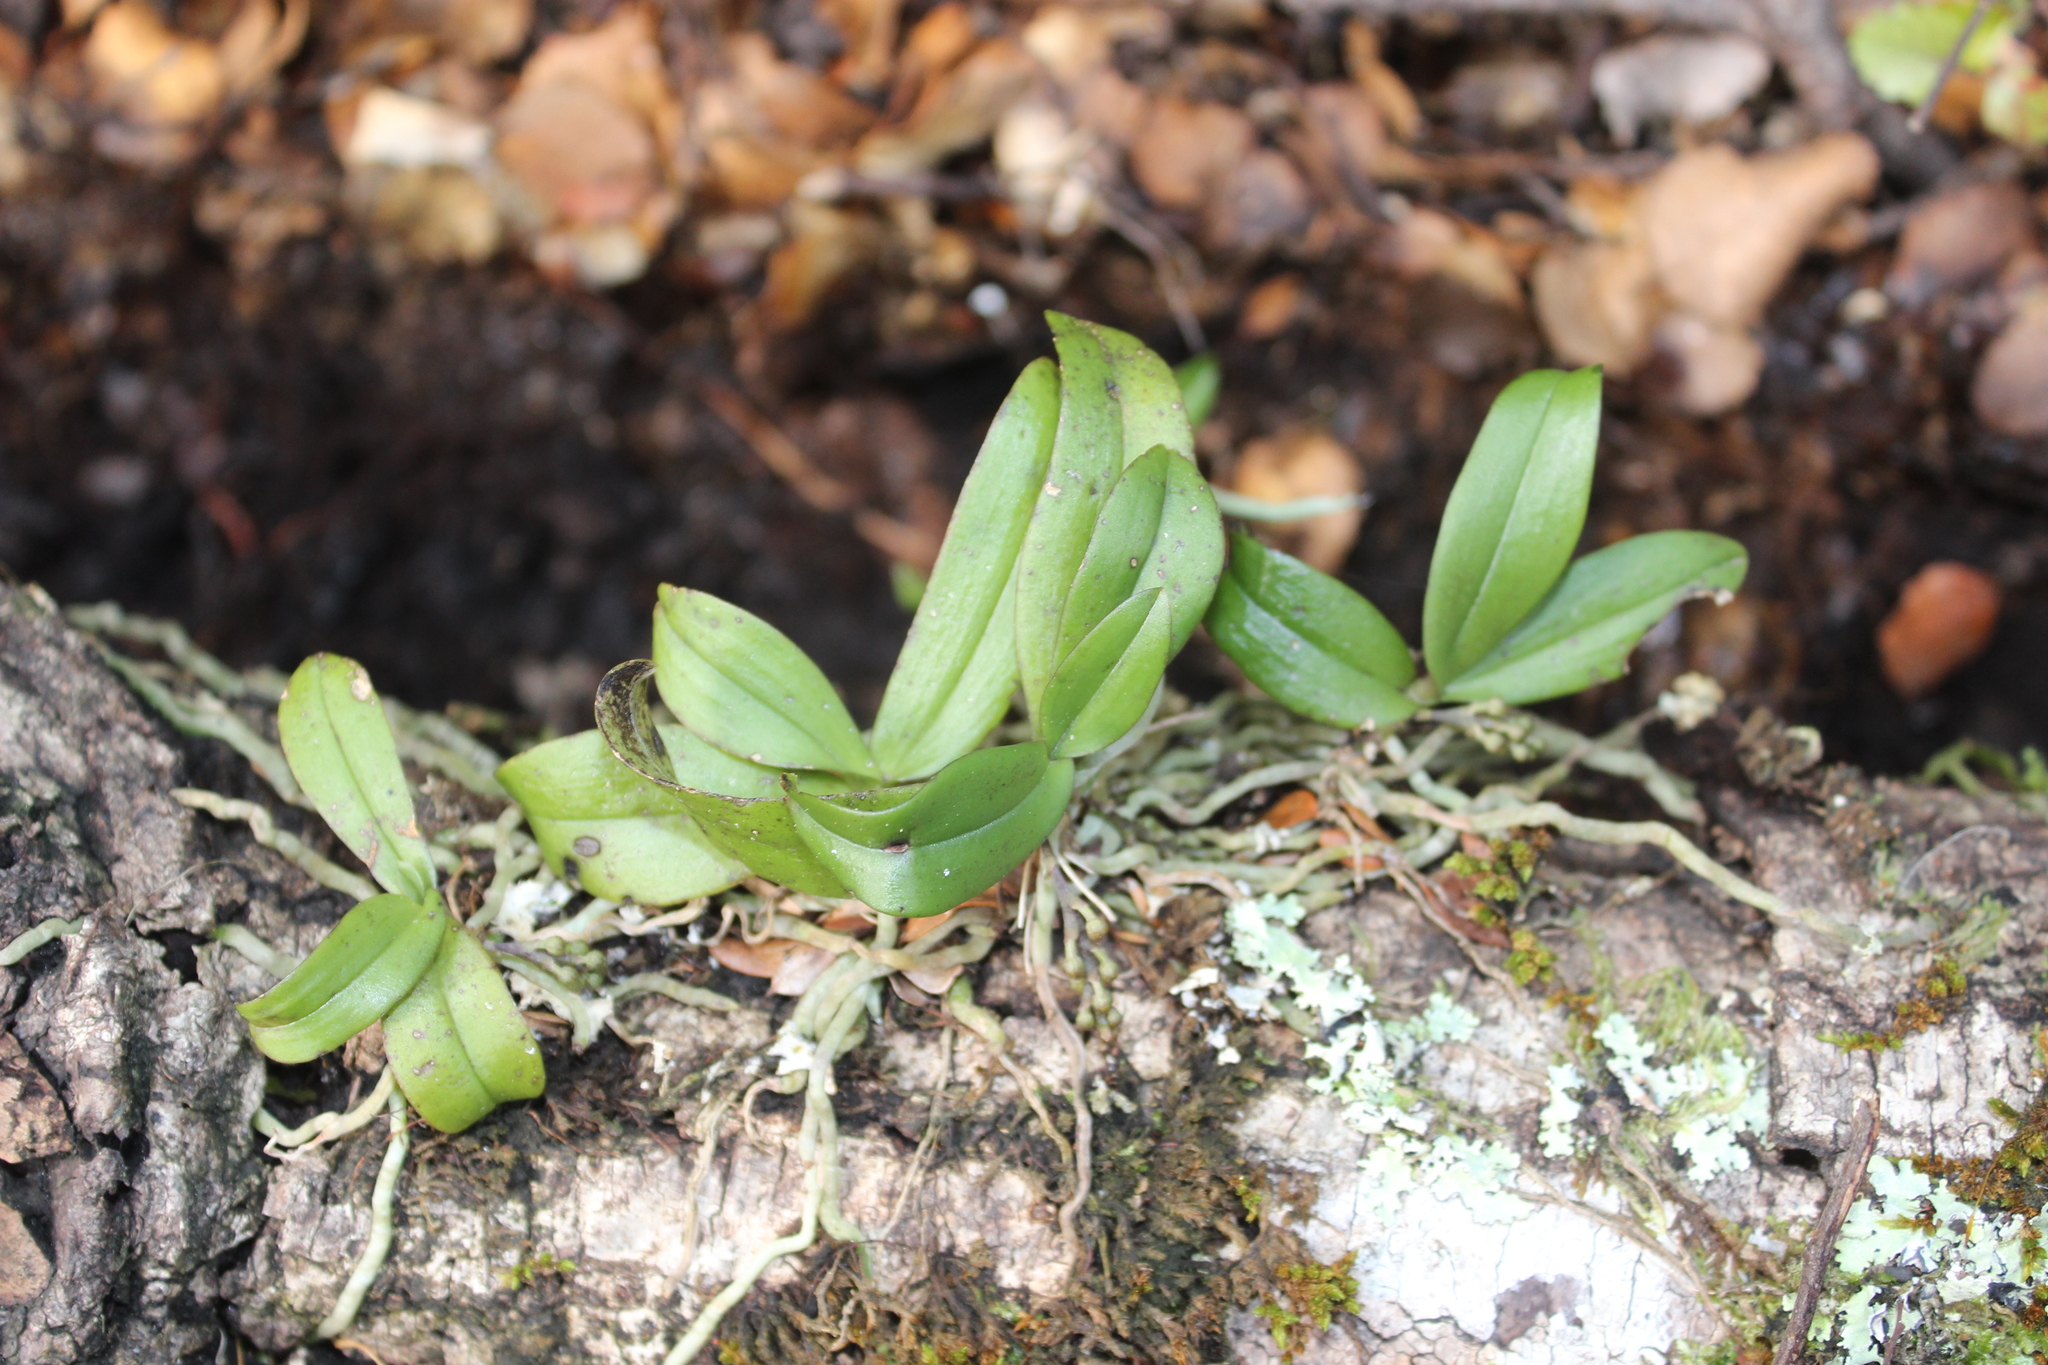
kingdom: Plantae
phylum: Tracheophyta
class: Liliopsida
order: Asparagales
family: Orchidaceae
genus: Drymoanthus
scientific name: Drymoanthus adversus
